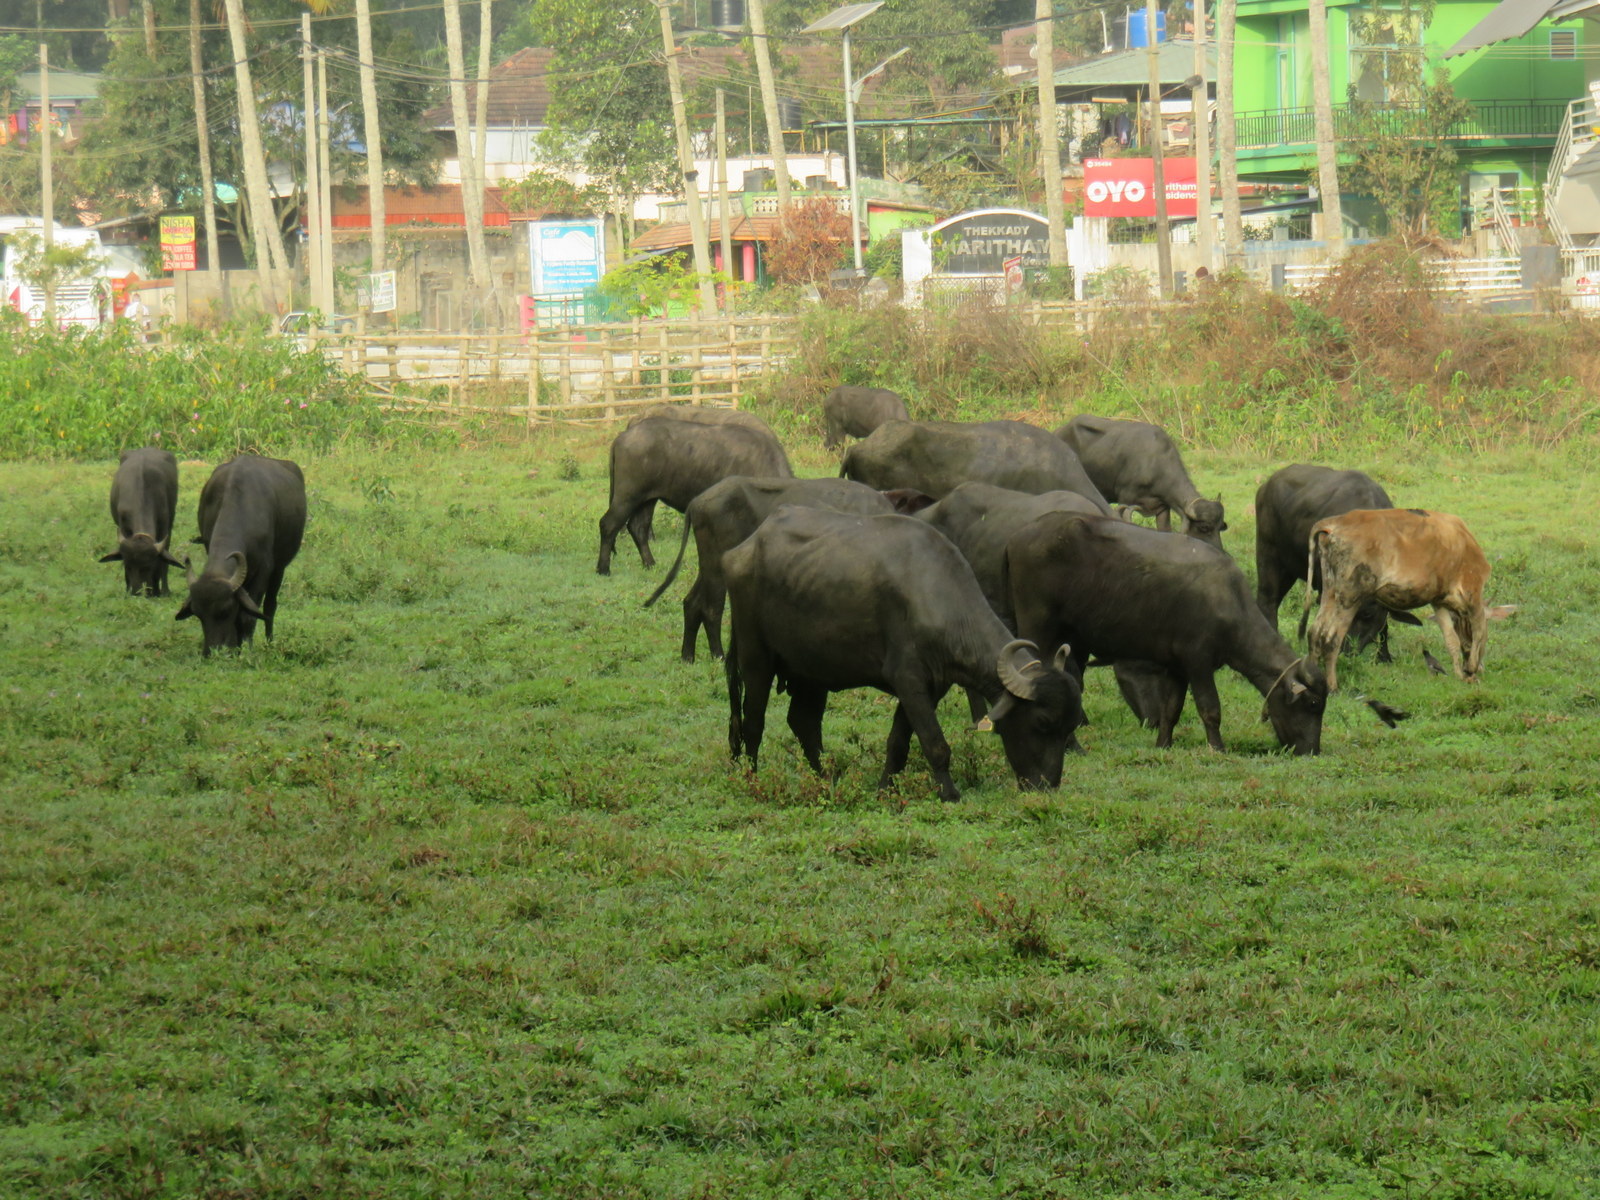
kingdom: Animalia
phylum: Chordata
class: Mammalia
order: Artiodactyla
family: Bovidae
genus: Bubalus
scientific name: Bubalus bubalis
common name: Water buffalo
